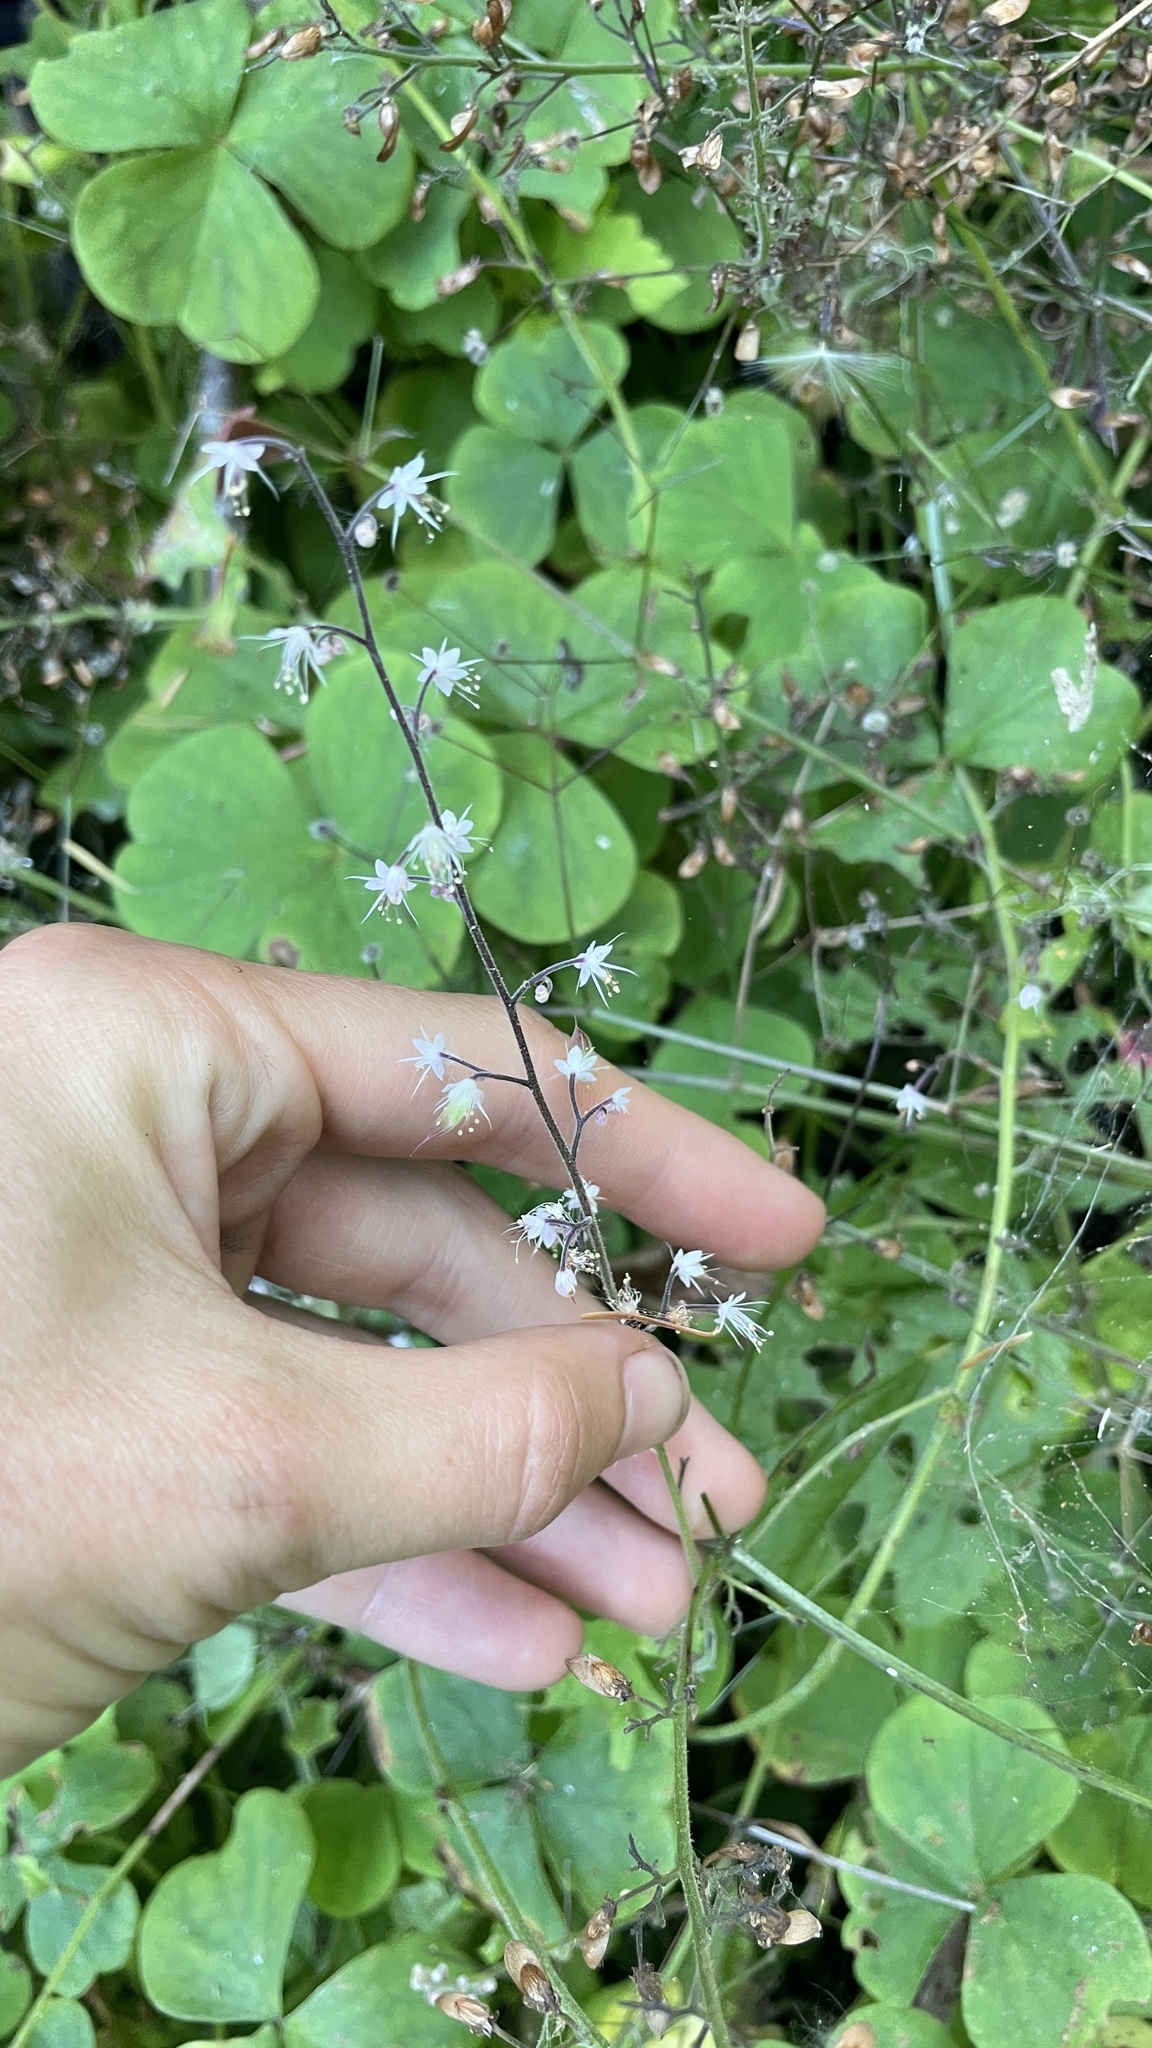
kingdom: Plantae
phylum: Tracheophyta
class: Magnoliopsida
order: Saxifragales
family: Saxifragaceae
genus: Tiarella
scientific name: Tiarella trifoliata
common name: Sugar-scoop
